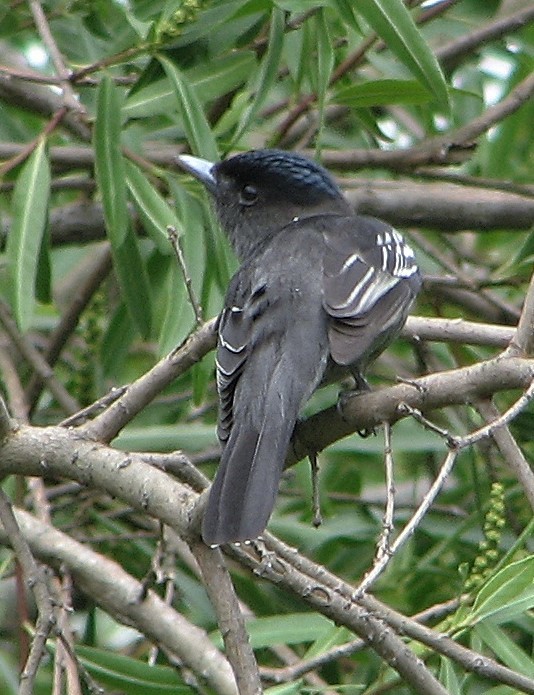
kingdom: Animalia
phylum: Chordata
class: Aves
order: Passeriformes
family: Cotingidae
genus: Pachyramphus
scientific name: Pachyramphus polychopterus
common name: White-winged becard
